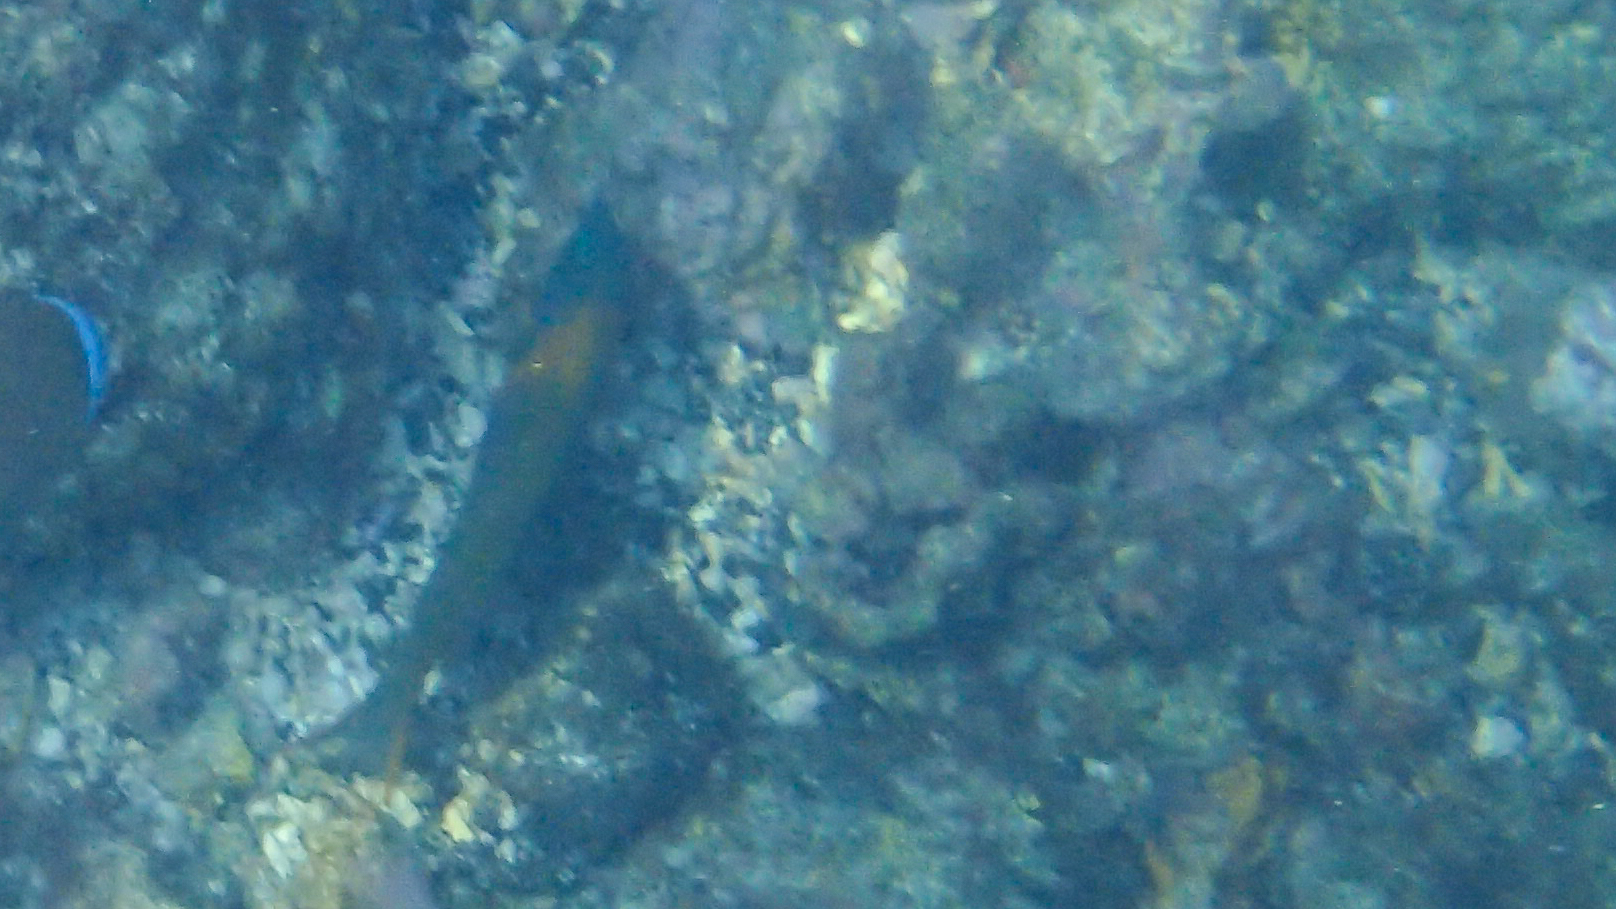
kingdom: Animalia
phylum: Chordata
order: Perciformes
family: Labridae
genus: Thalassoma
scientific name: Thalassoma duperrey
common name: Saddle wrasse
